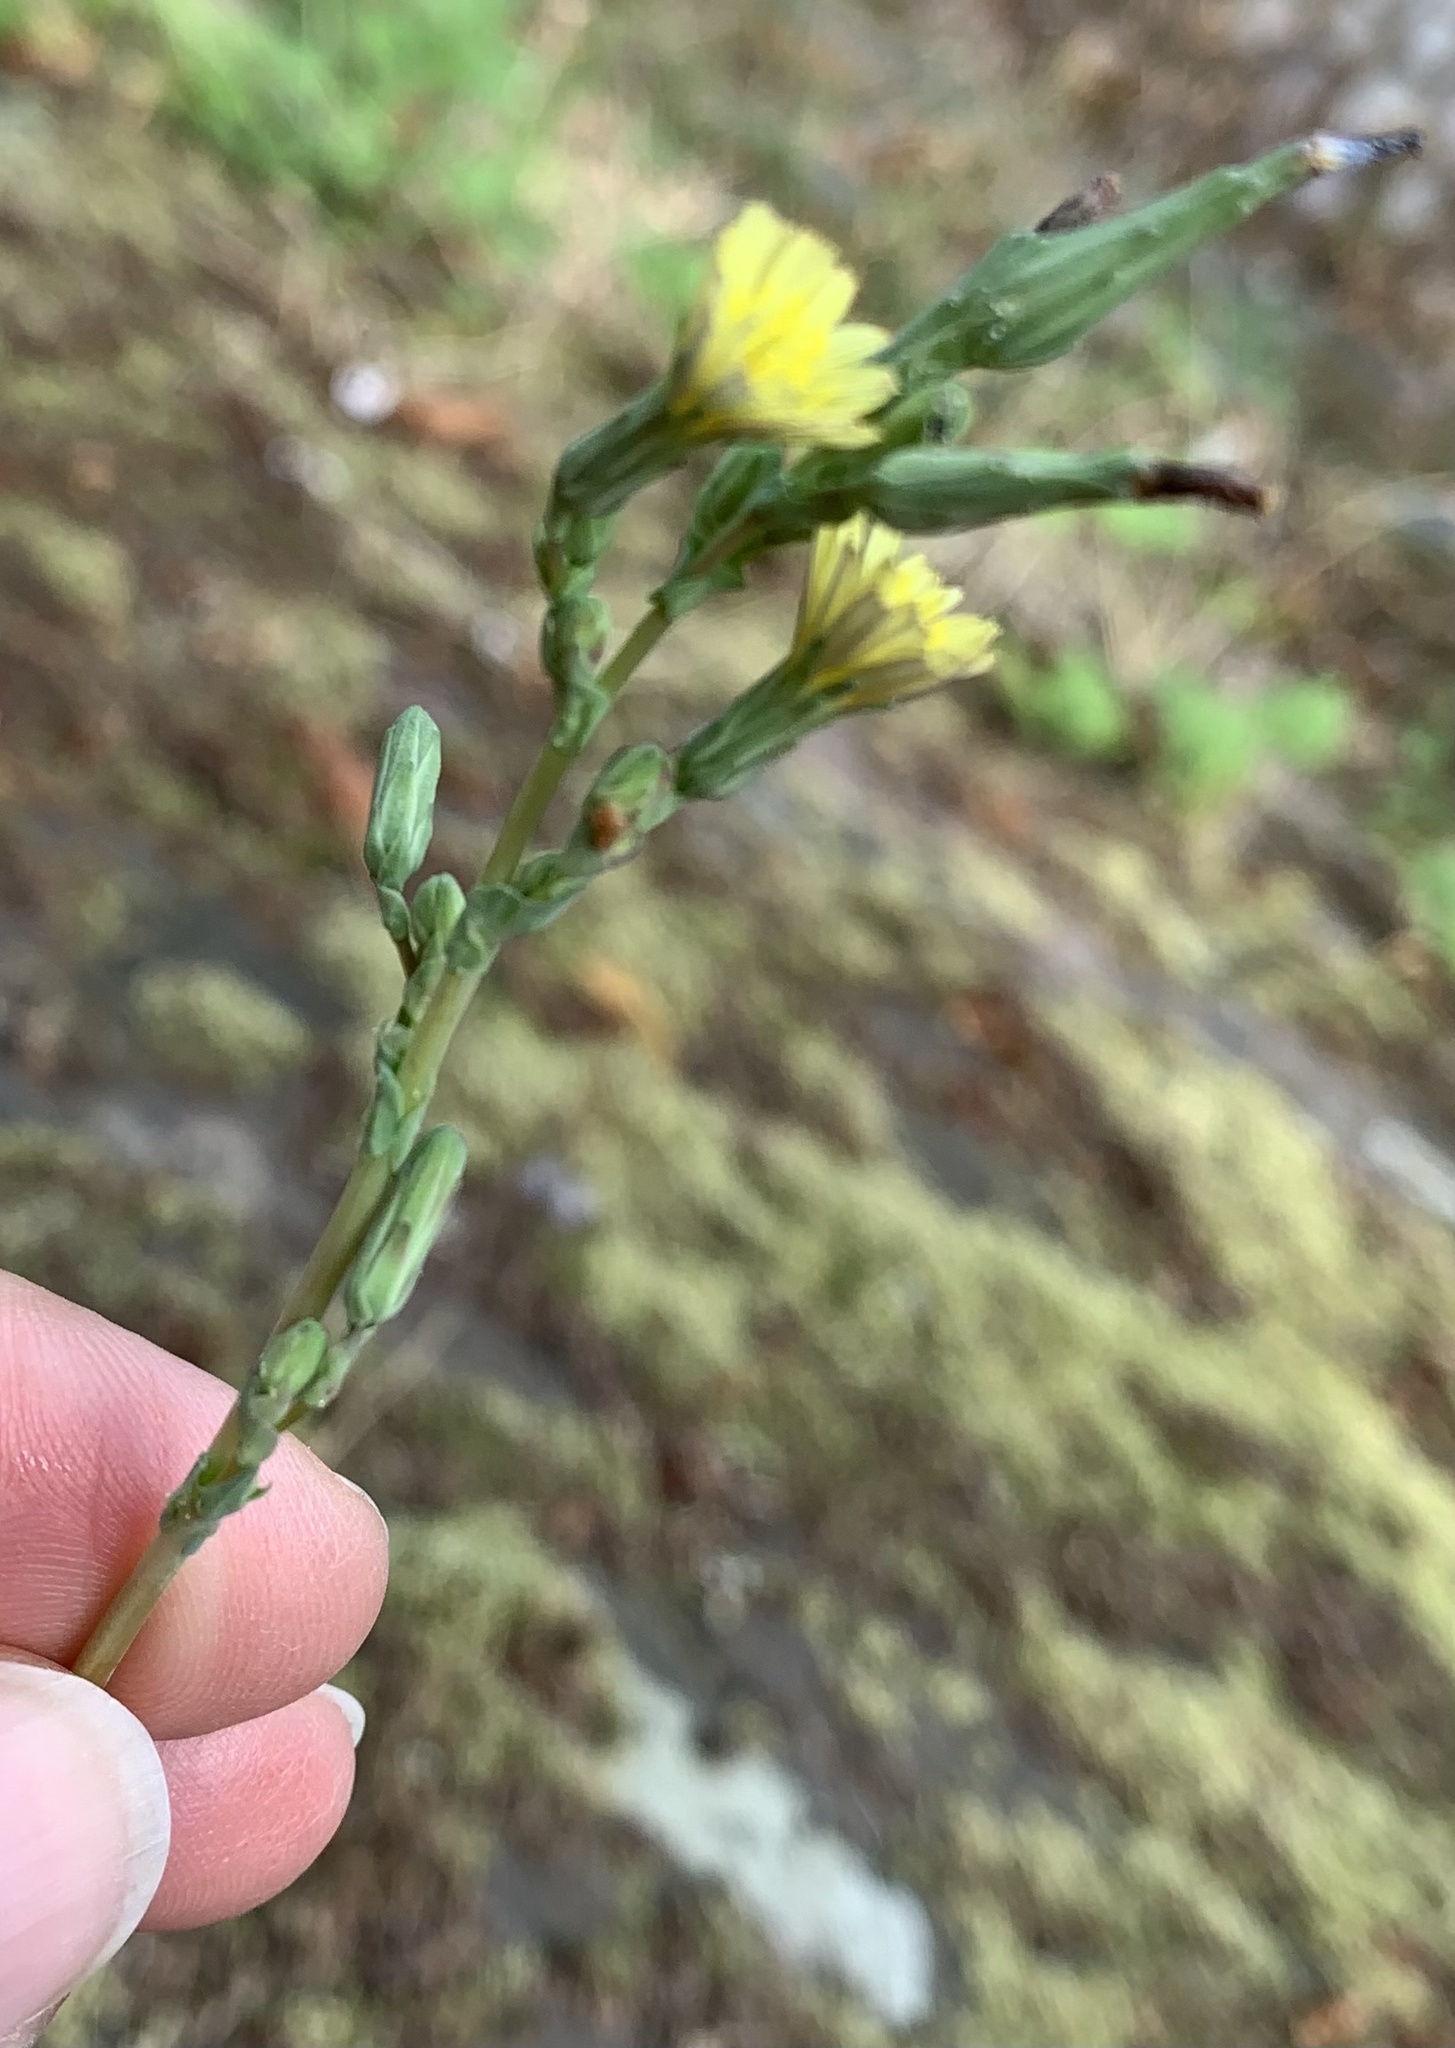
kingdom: Plantae
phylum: Tracheophyta
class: Magnoliopsida
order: Asterales
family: Asteraceae
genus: Lactuca
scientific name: Lactuca serriola
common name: Prickly lettuce
